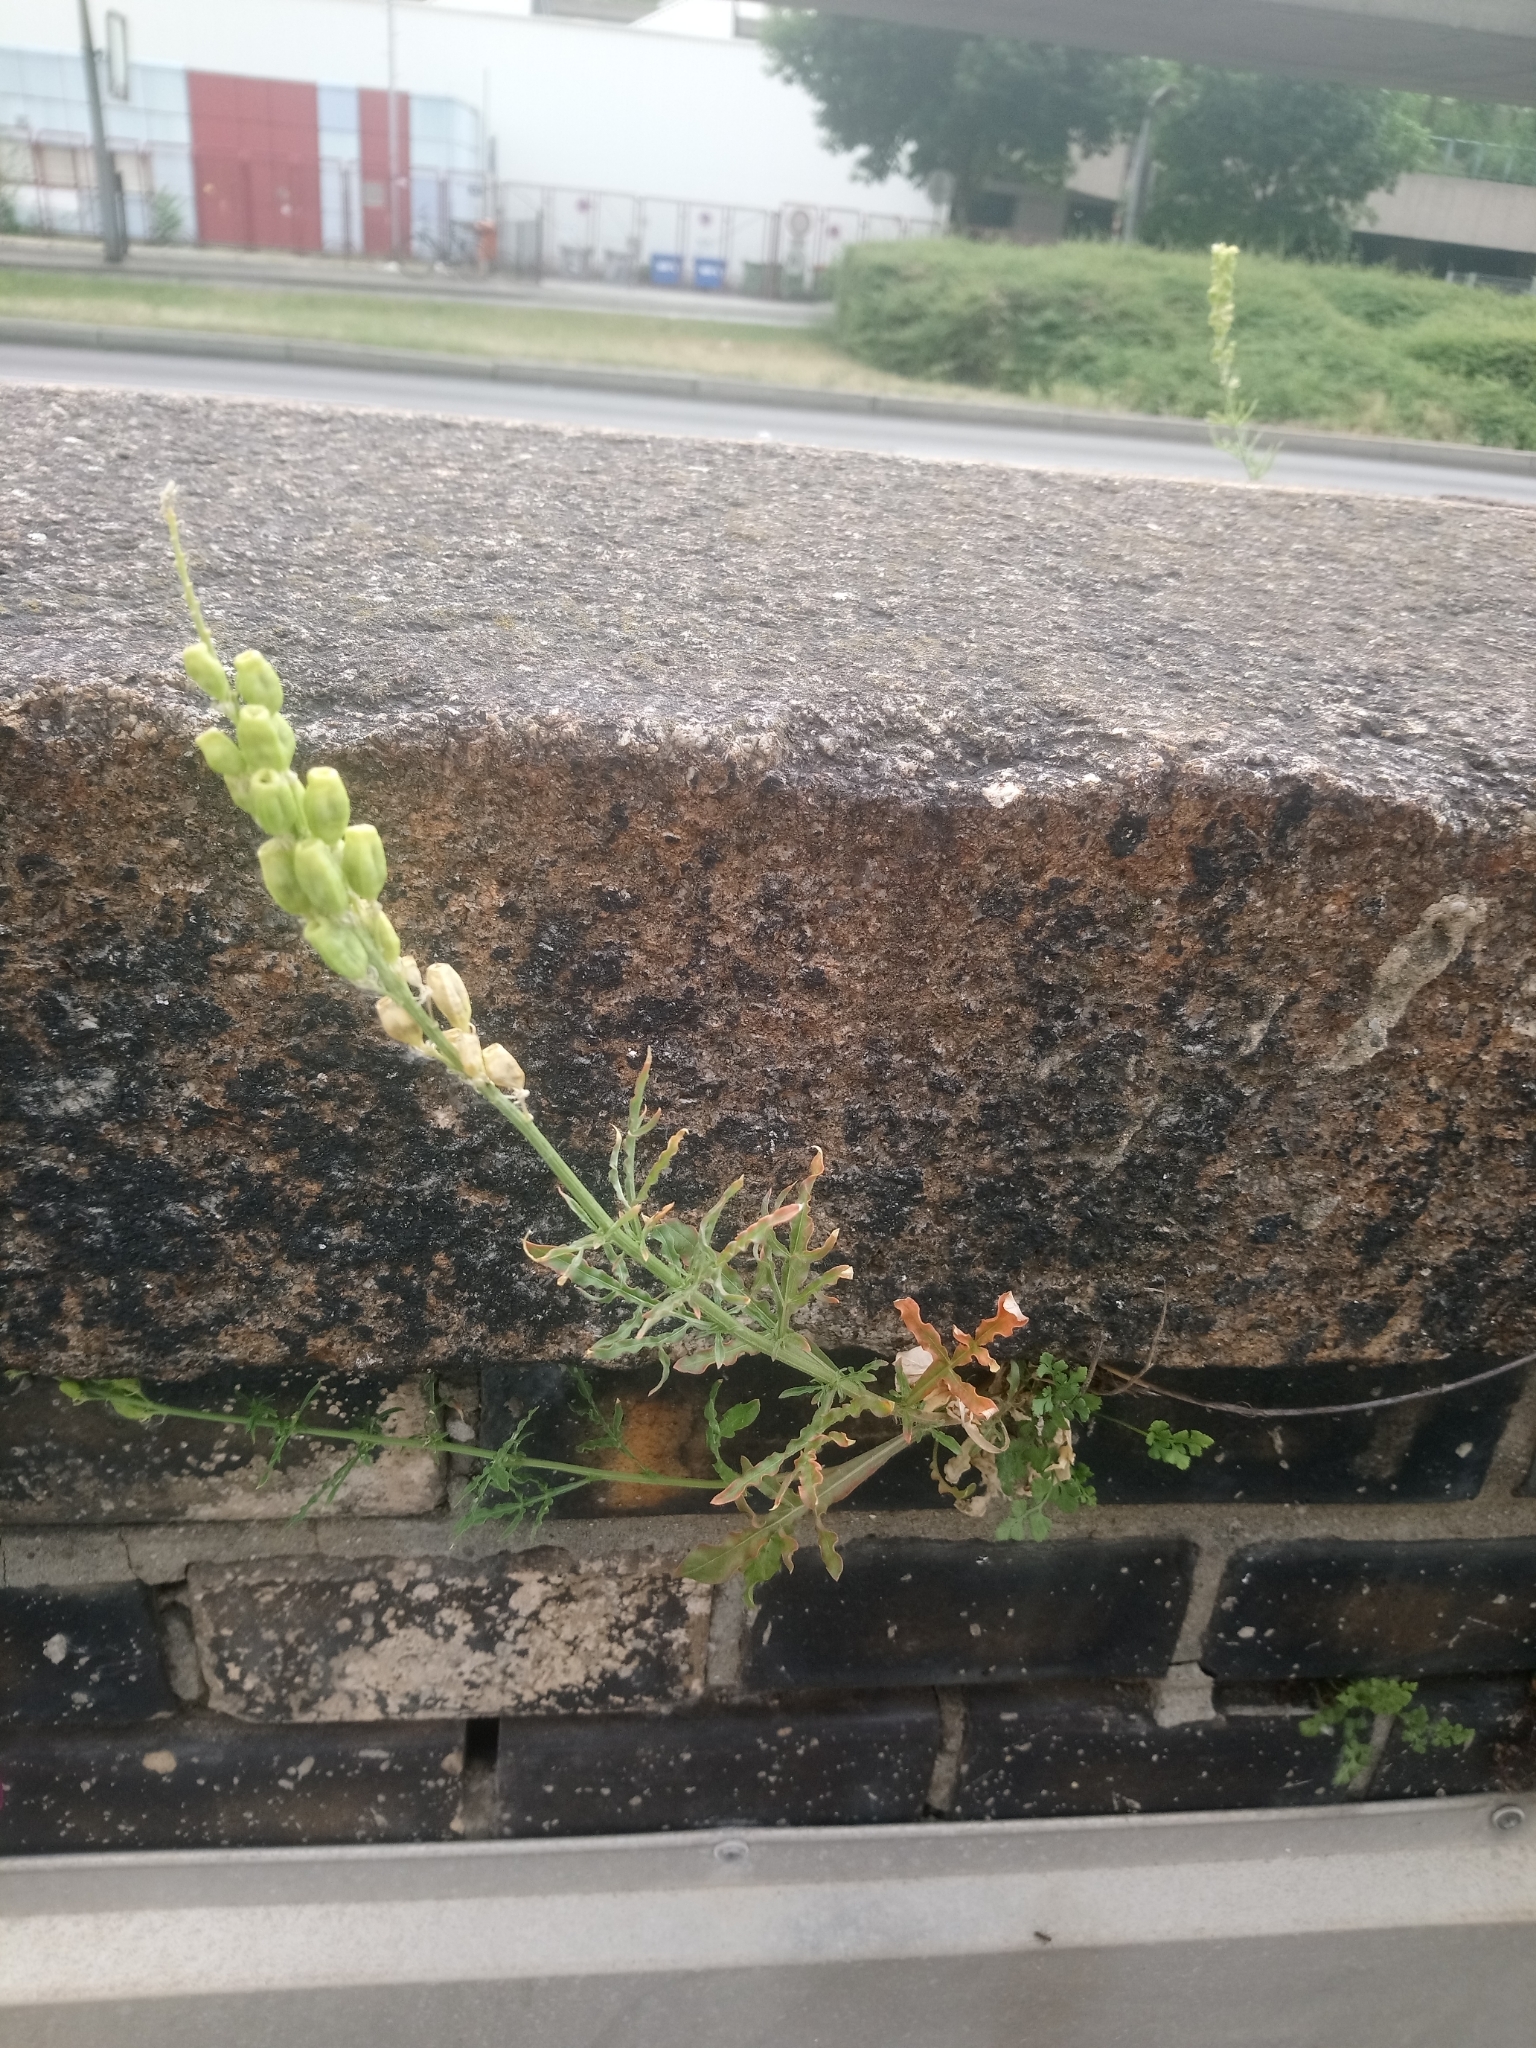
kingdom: Plantae
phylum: Tracheophyta
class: Magnoliopsida
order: Brassicales
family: Resedaceae
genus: Reseda
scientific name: Reseda lutea
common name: Wild mignonette
